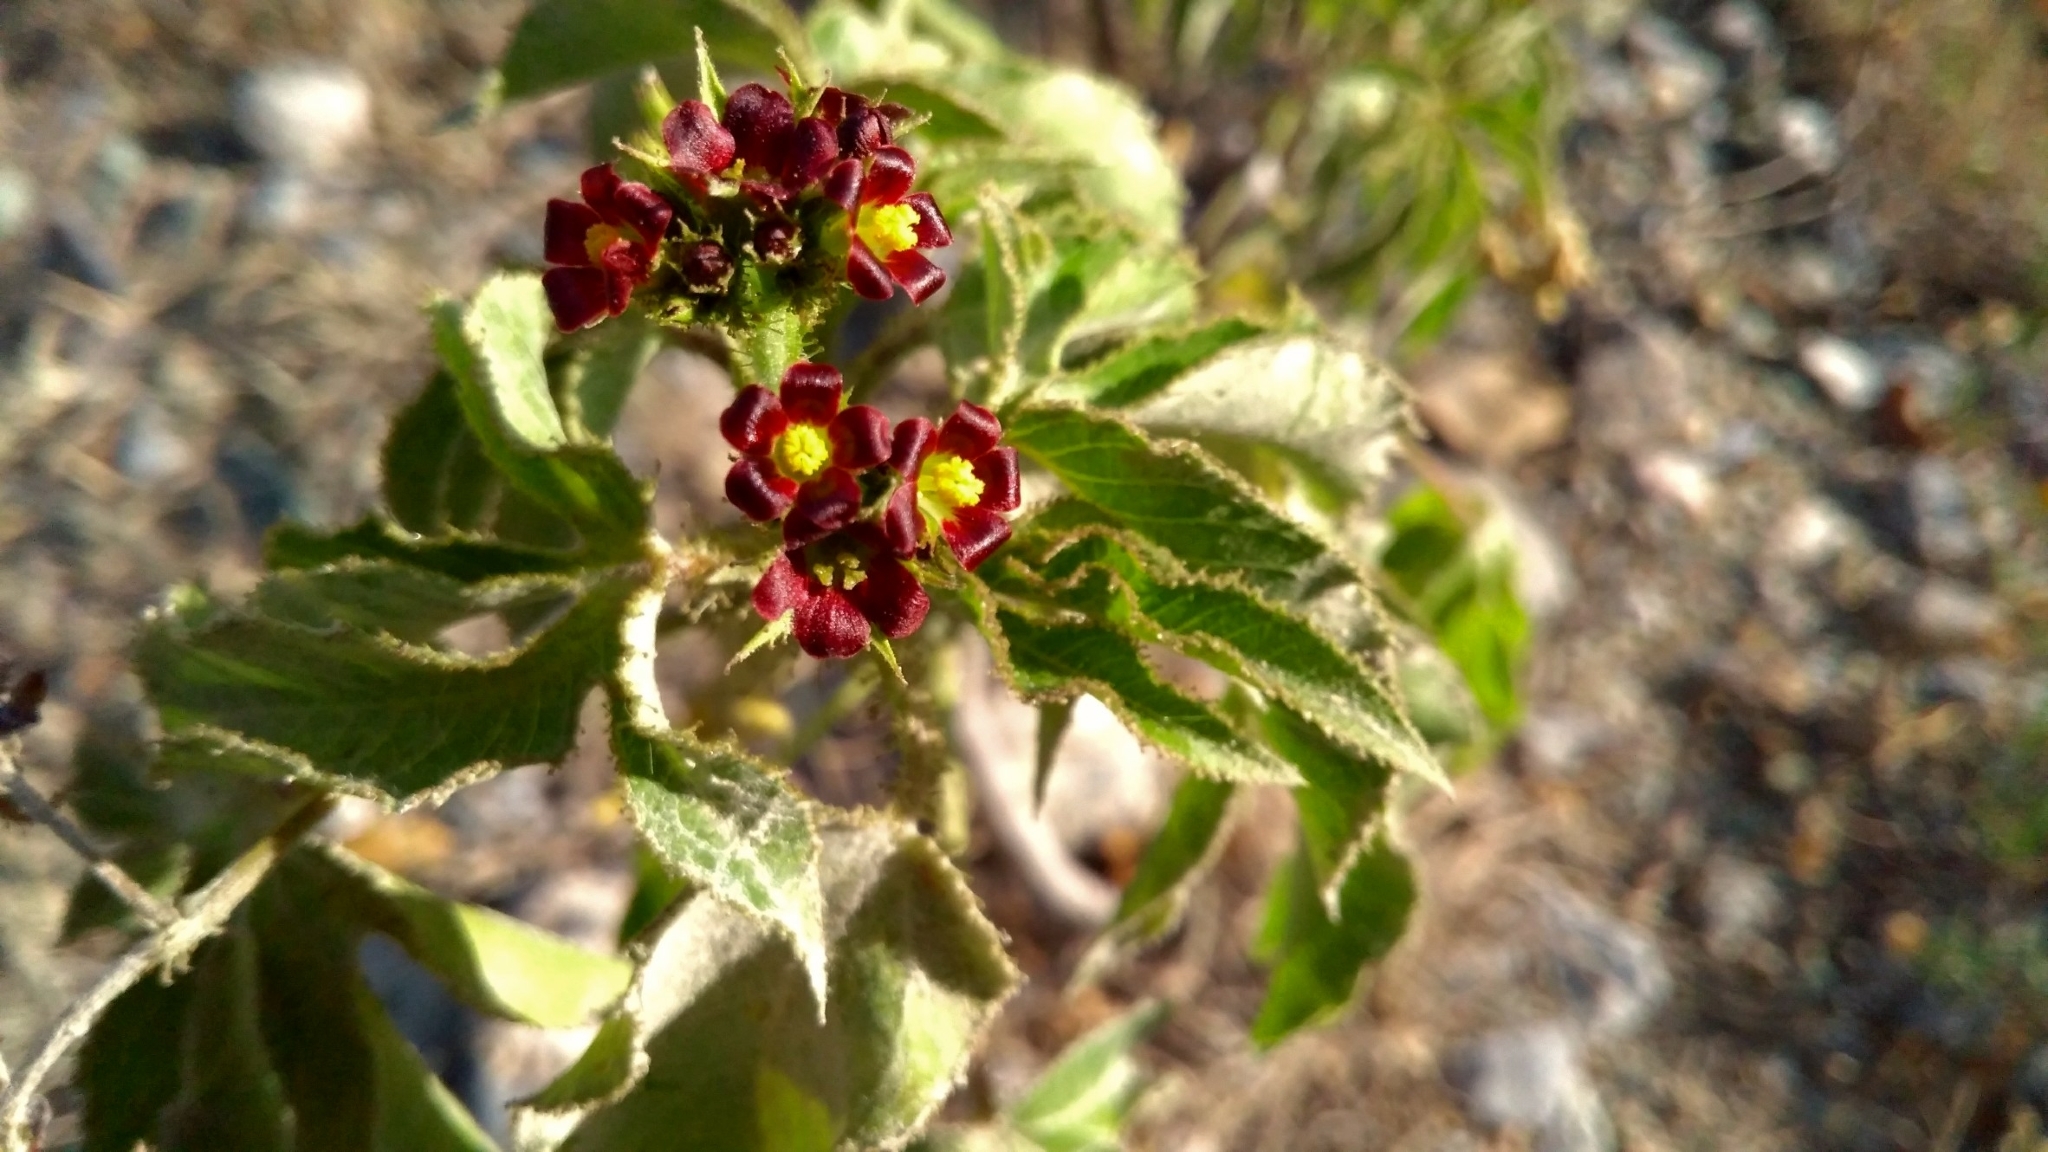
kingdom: Plantae
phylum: Tracheophyta
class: Magnoliopsida
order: Malpighiales
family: Euphorbiaceae
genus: Jatropha
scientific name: Jatropha gossypiifolia
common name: Bellyache bush
